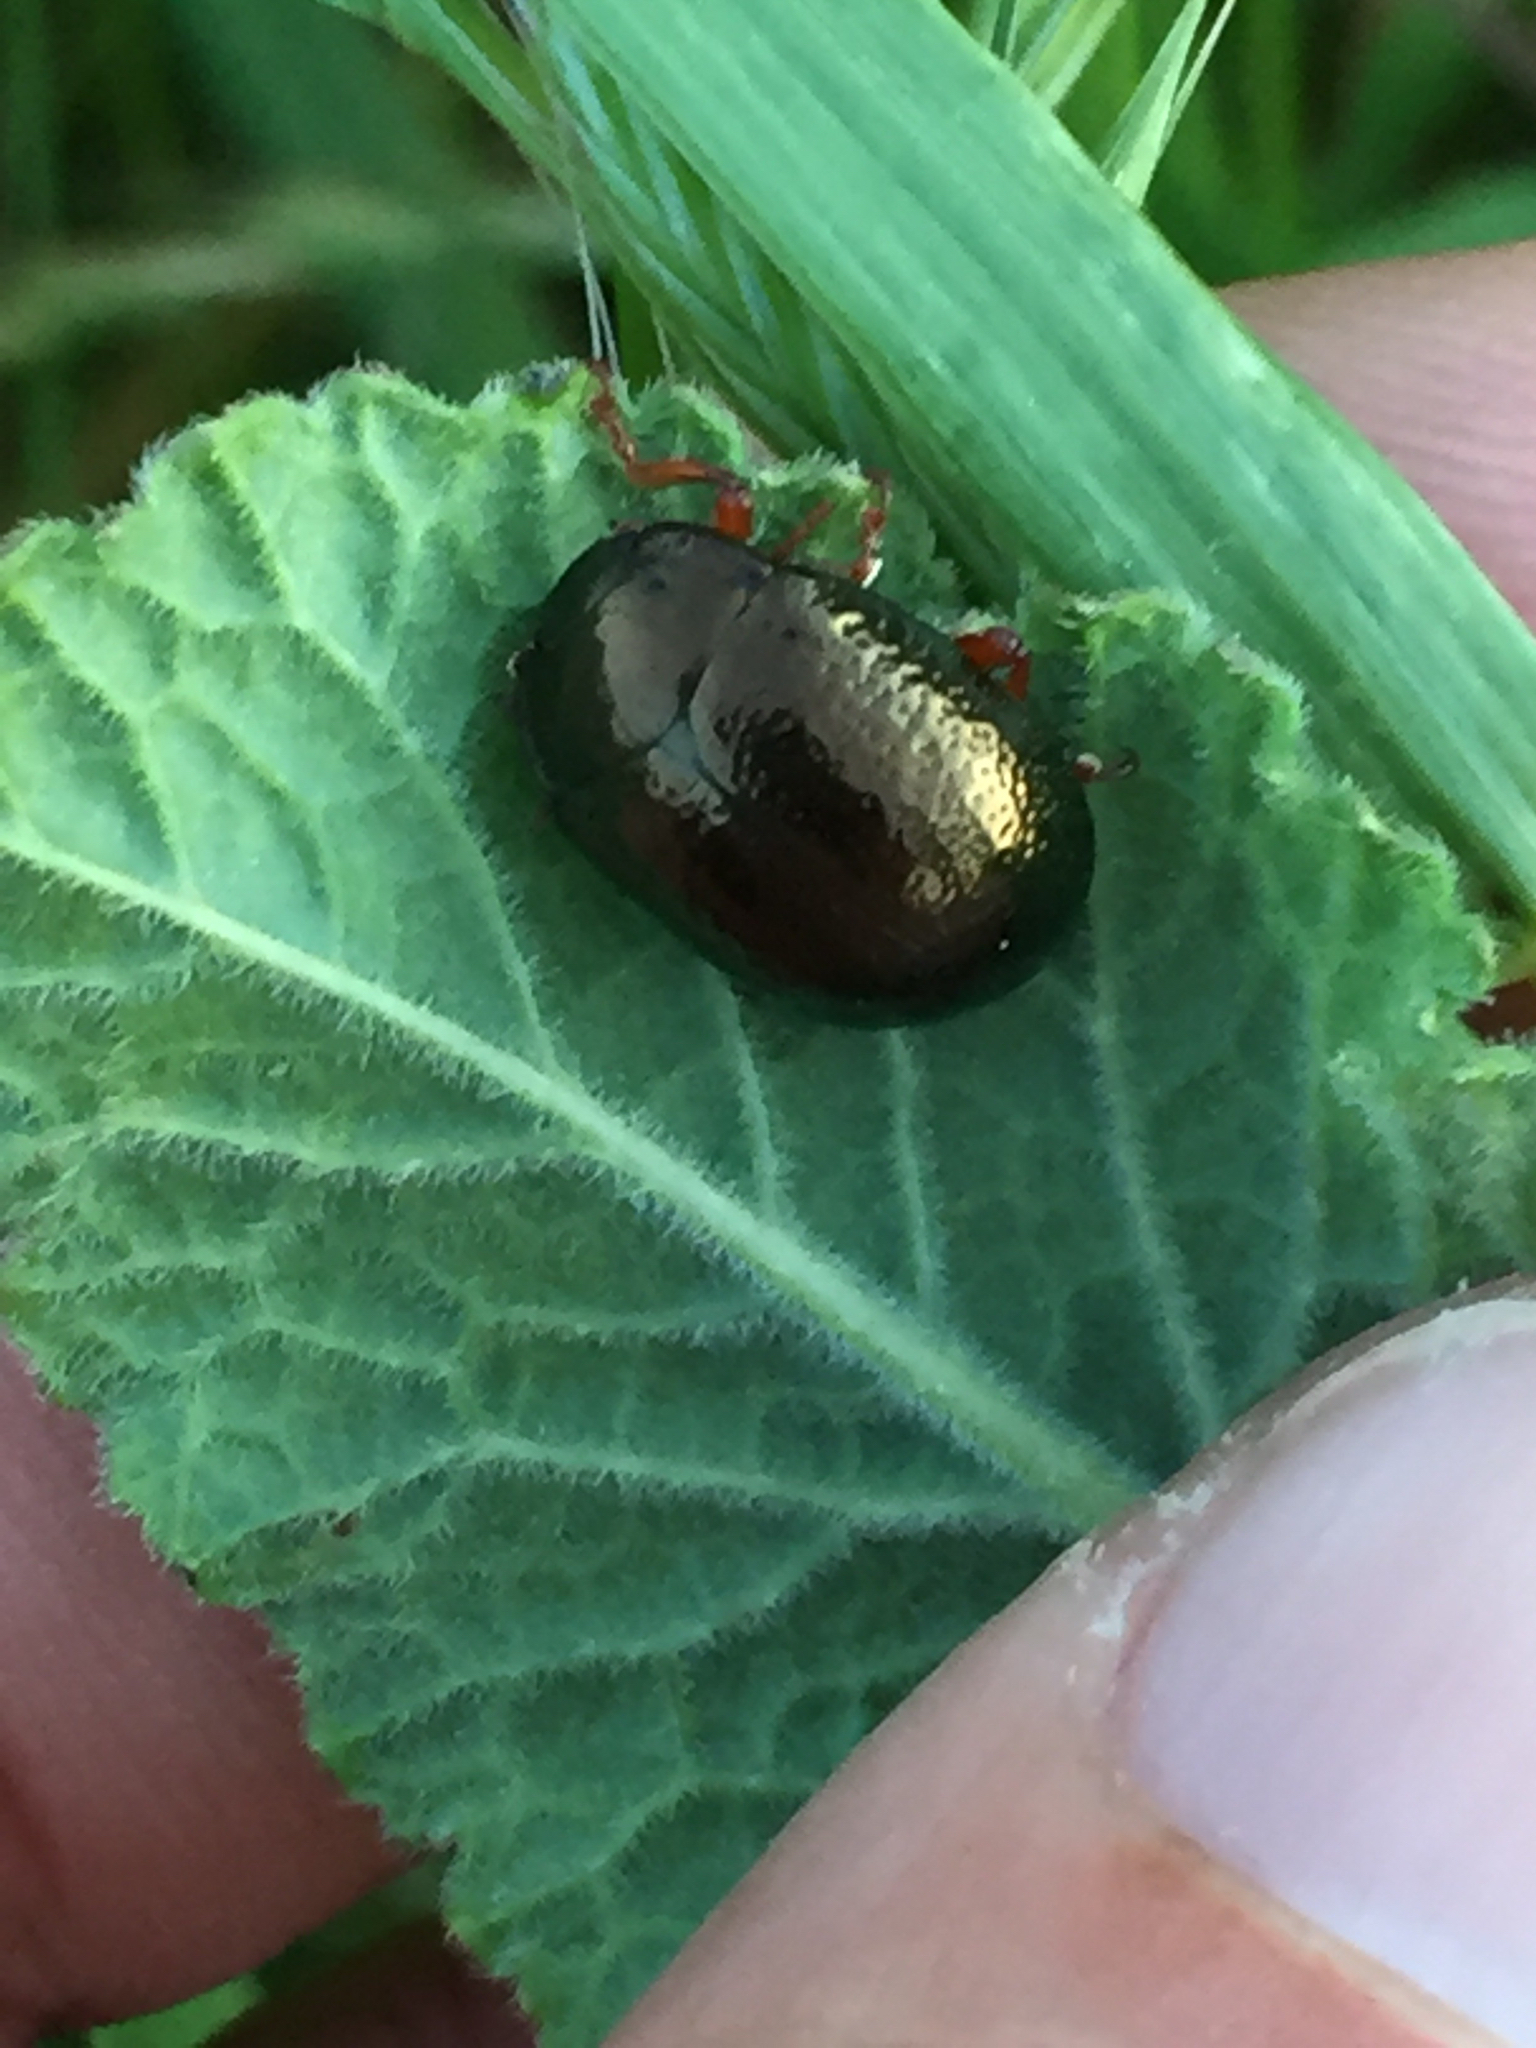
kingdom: Animalia
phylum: Arthropoda
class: Insecta
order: Coleoptera
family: Chrysomelidae
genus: Chrysolina
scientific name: Chrysolina bankii
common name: Leaf beetle
